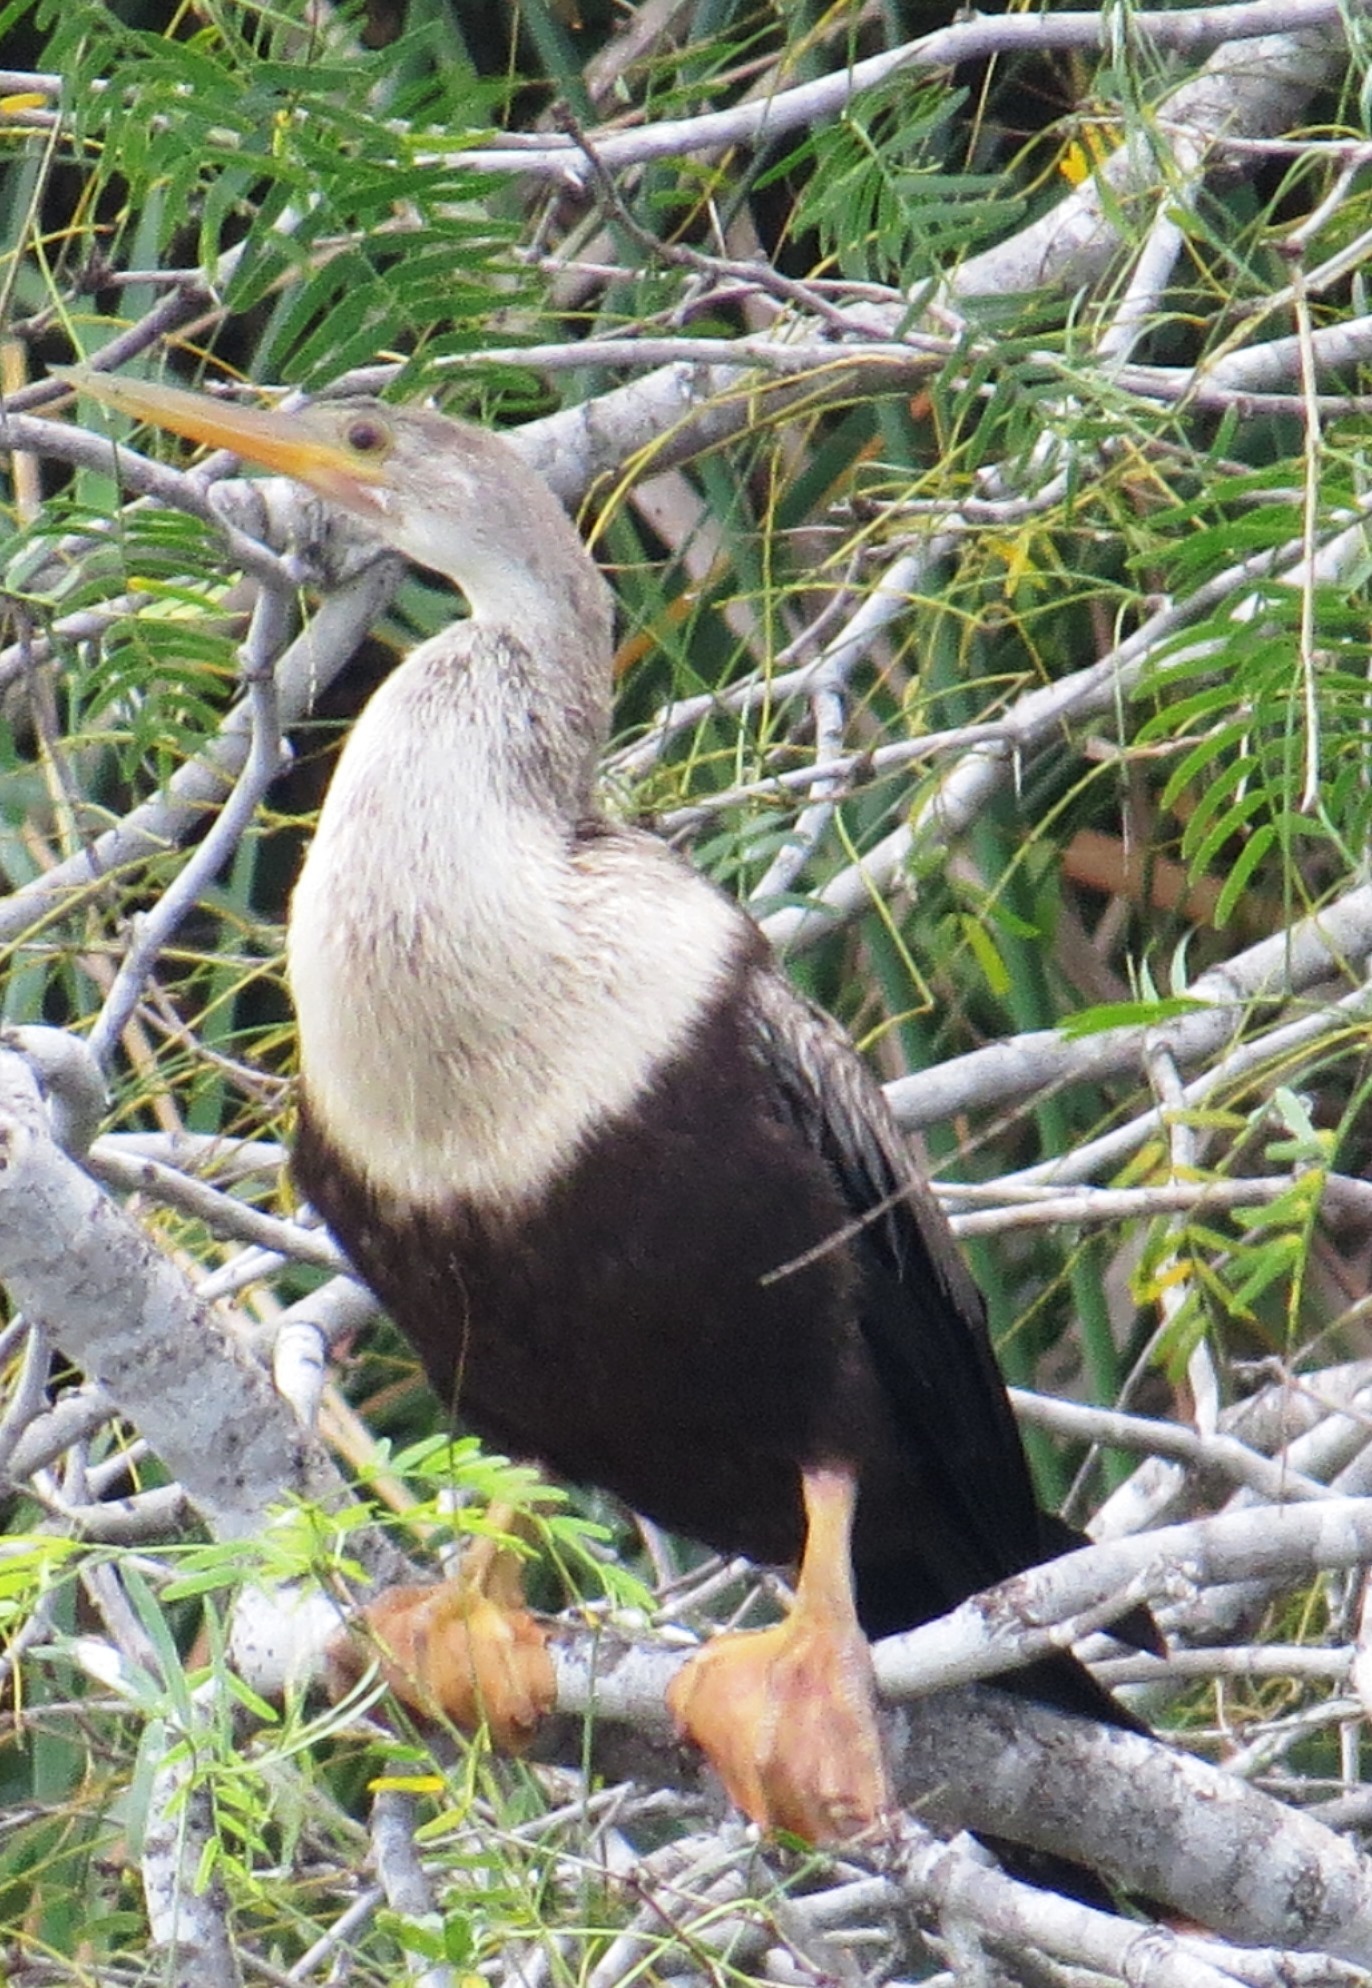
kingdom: Animalia
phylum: Chordata
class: Aves
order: Suliformes
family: Anhingidae
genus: Anhinga
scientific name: Anhinga anhinga
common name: Anhinga
